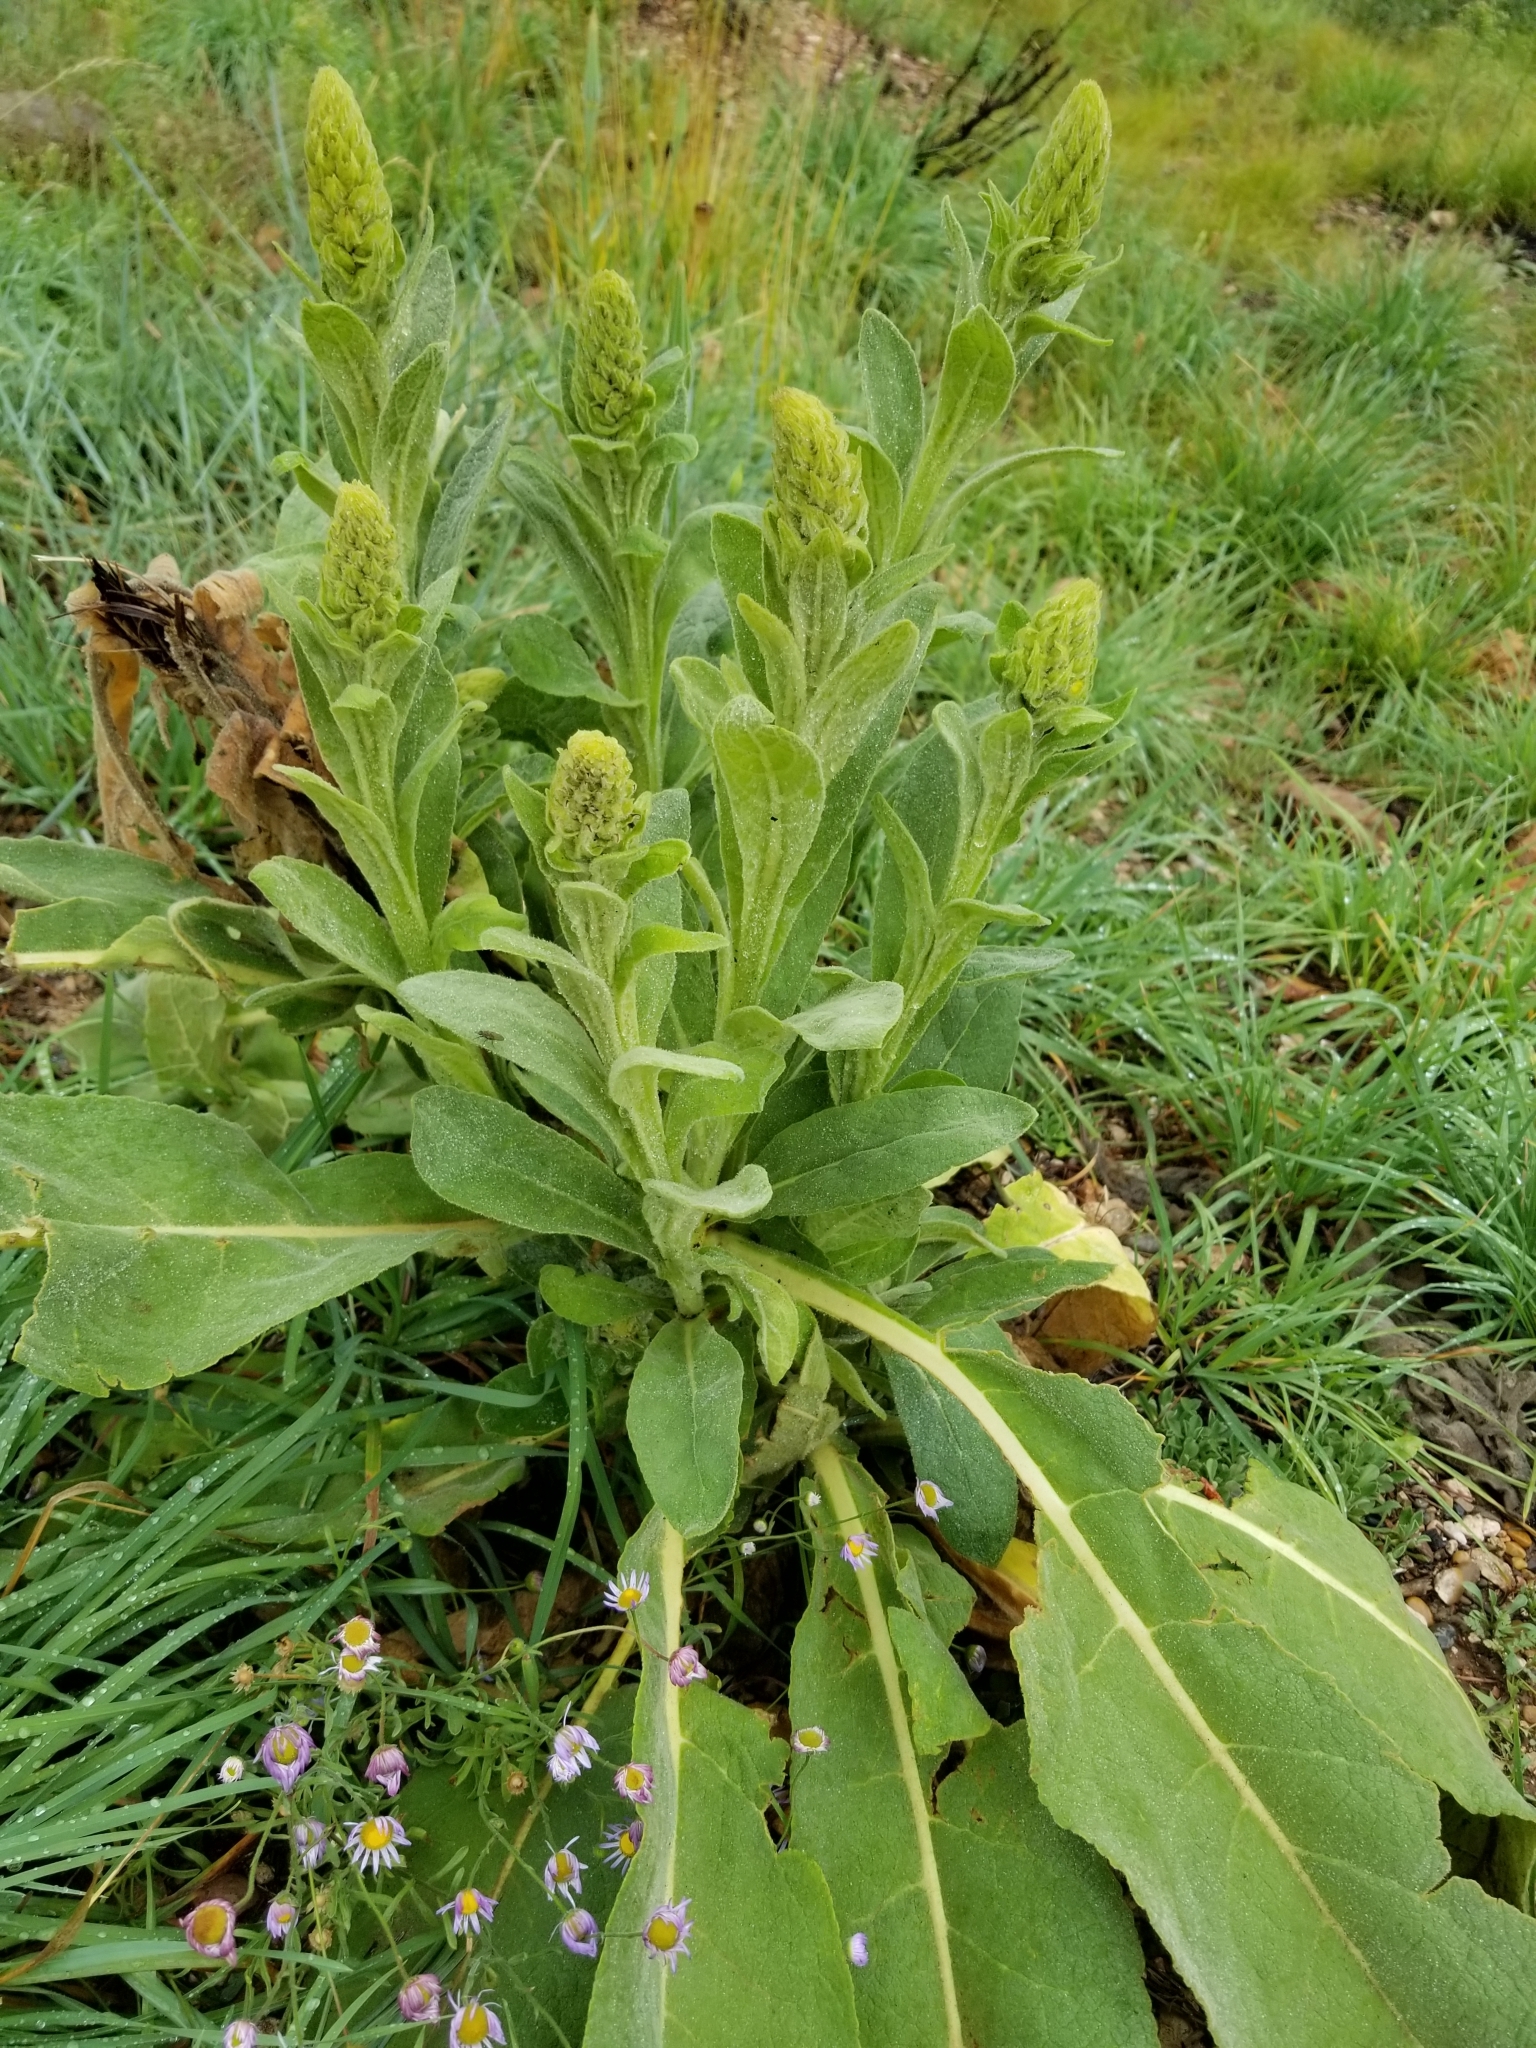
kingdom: Plantae
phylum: Tracheophyta
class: Magnoliopsida
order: Lamiales
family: Scrophulariaceae
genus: Verbascum
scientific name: Verbascum thapsus
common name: Common mullein
